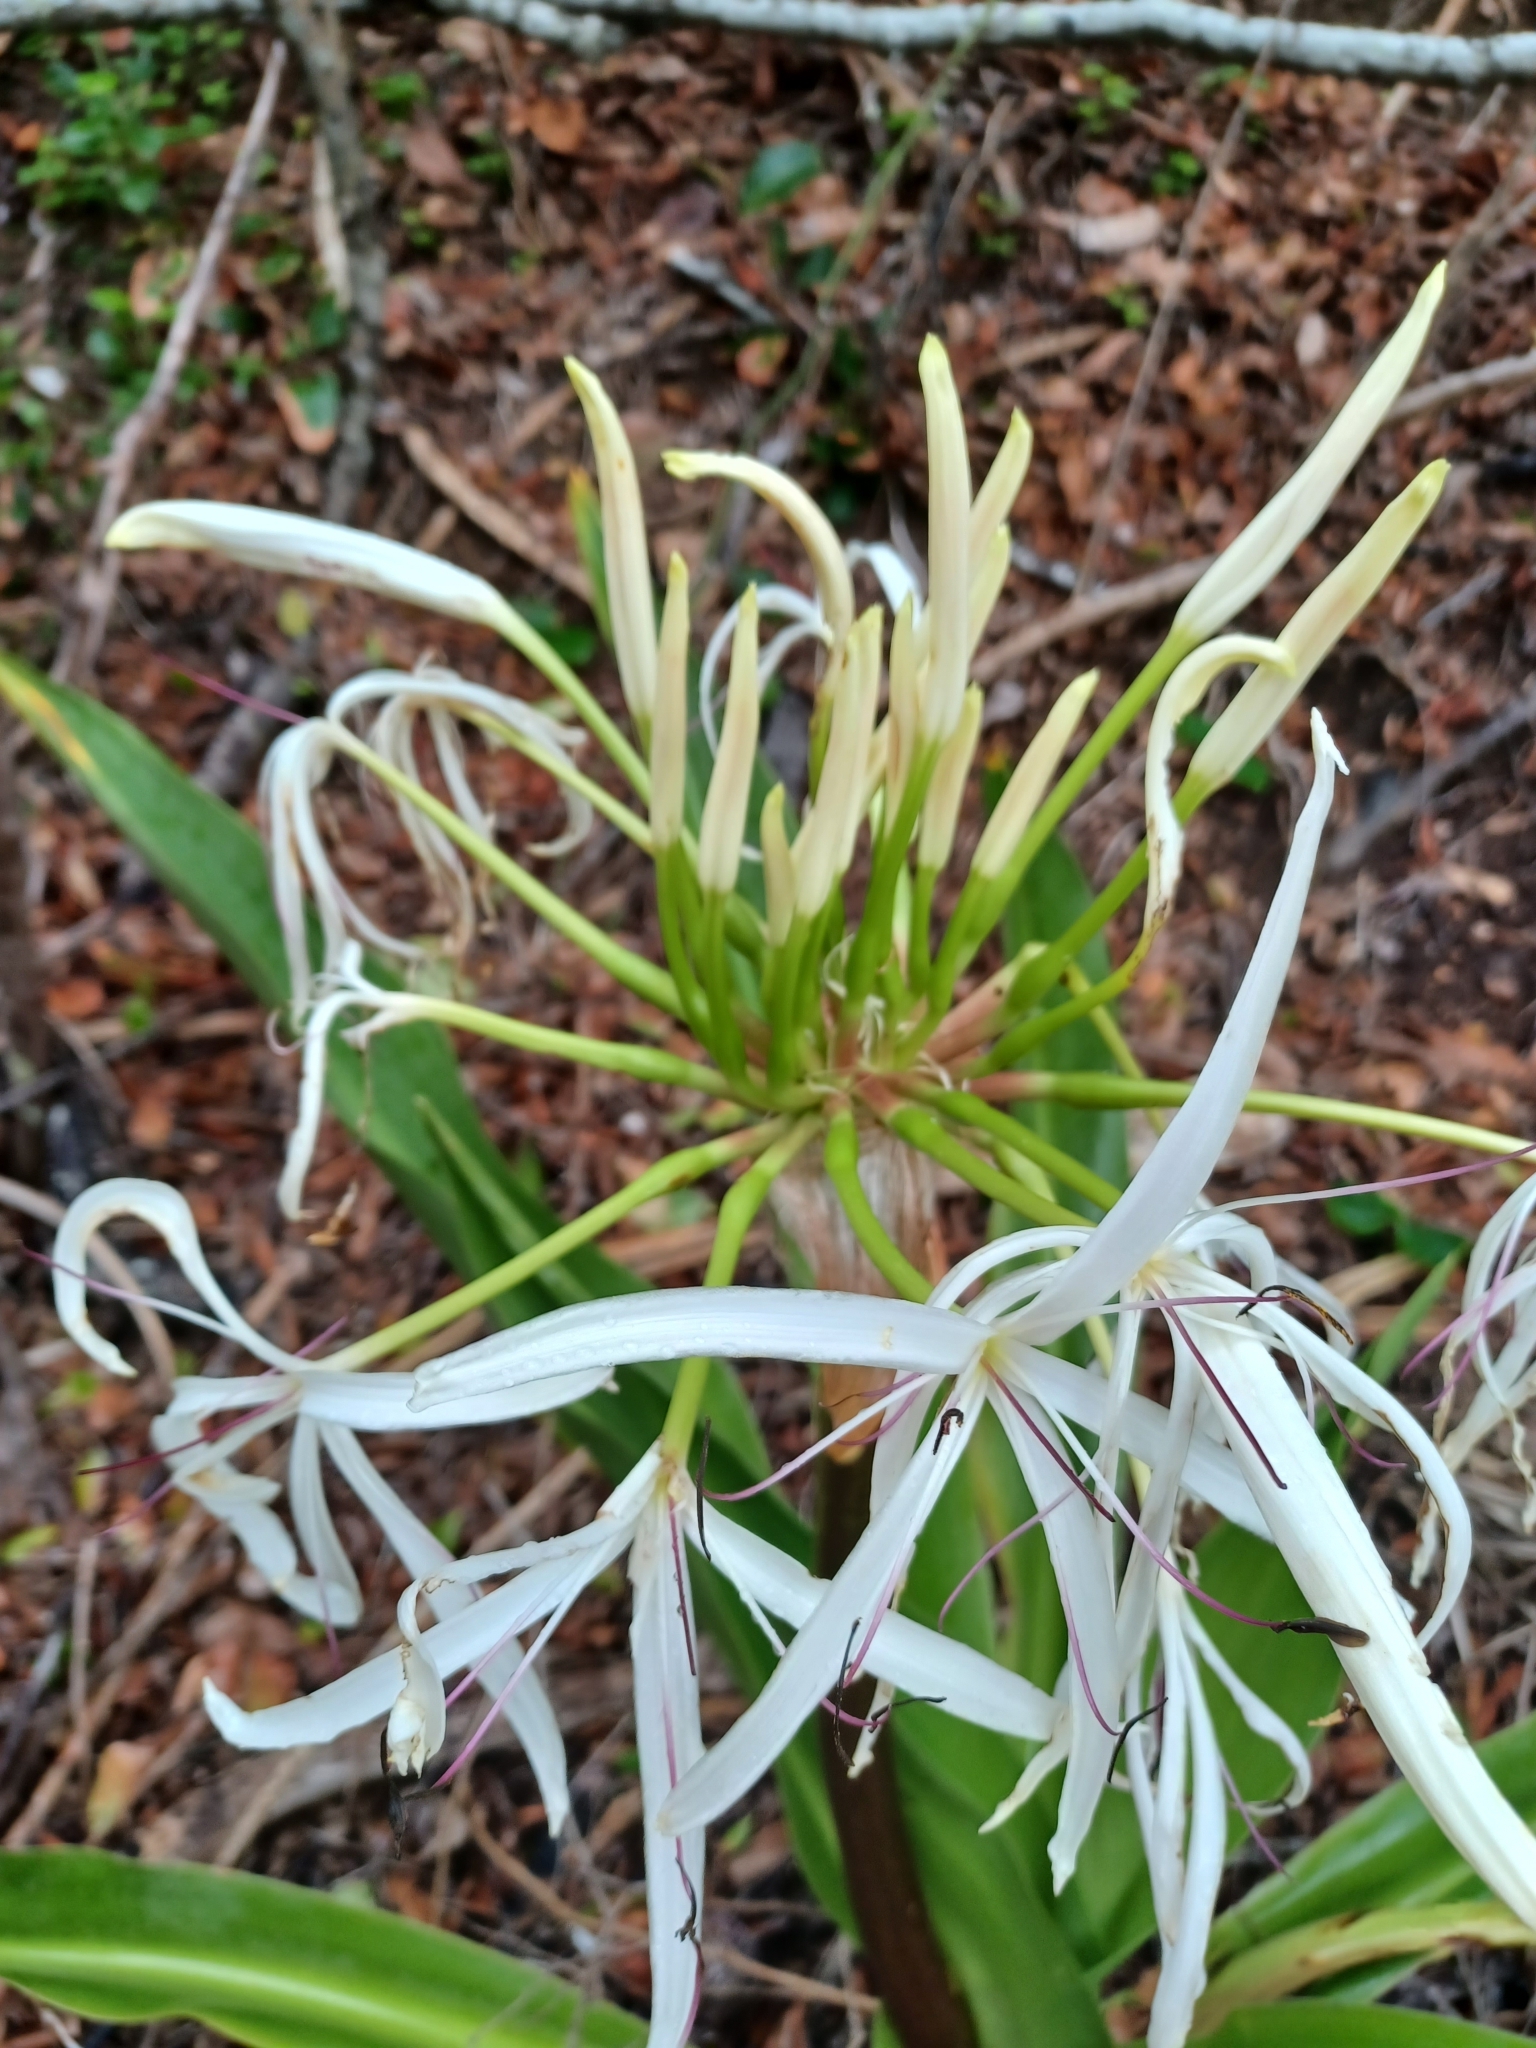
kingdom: Plantae
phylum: Tracheophyta
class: Liliopsida
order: Asparagales
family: Amaryllidaceae
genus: Crinum
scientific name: Crinum pedunculatum
